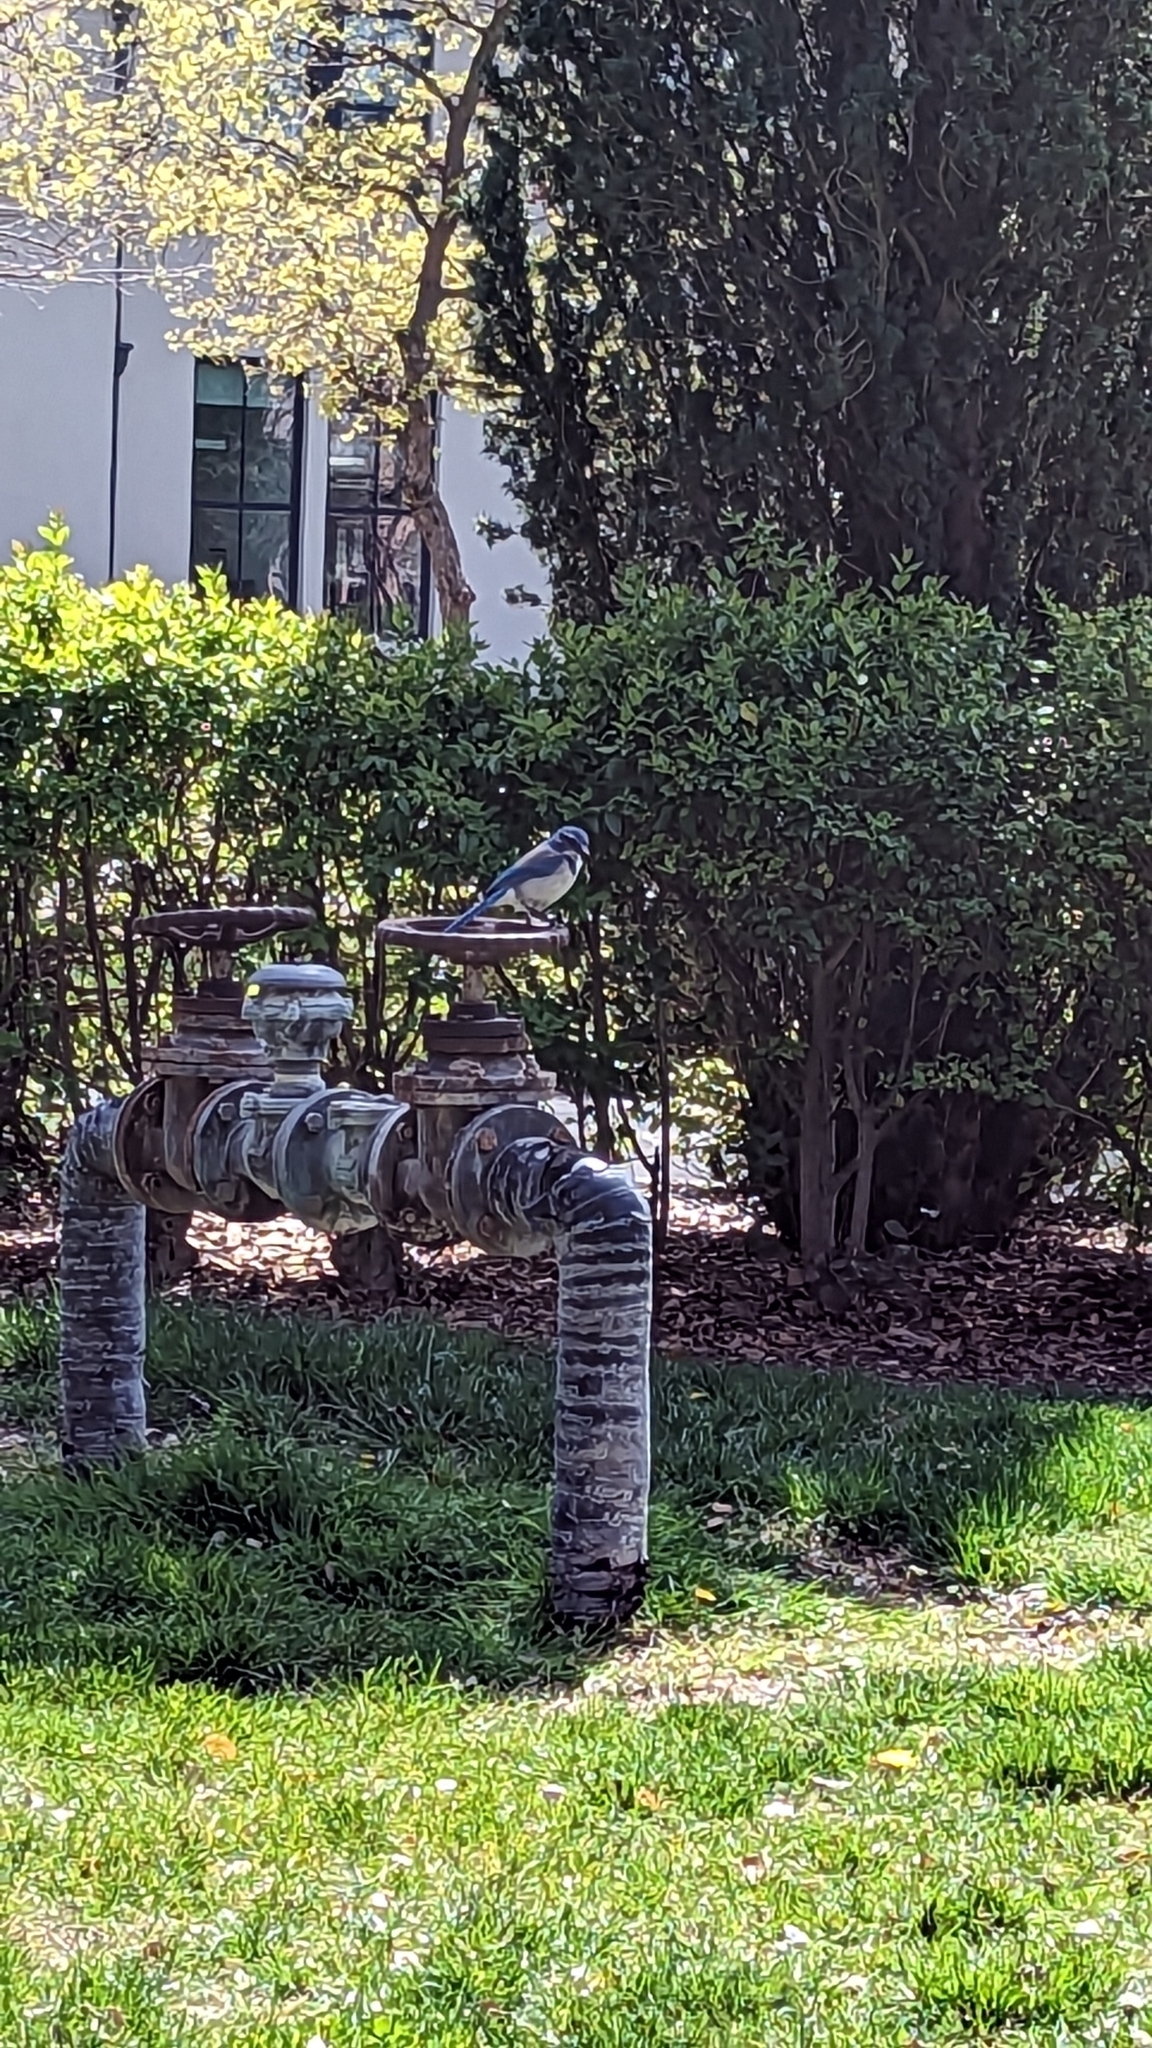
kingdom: Animalia
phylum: Chordata
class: Aves
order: Passeriformes
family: Corvidae
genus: Aphelocoma
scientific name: Aphelocoma californica
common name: California scrub-jay
